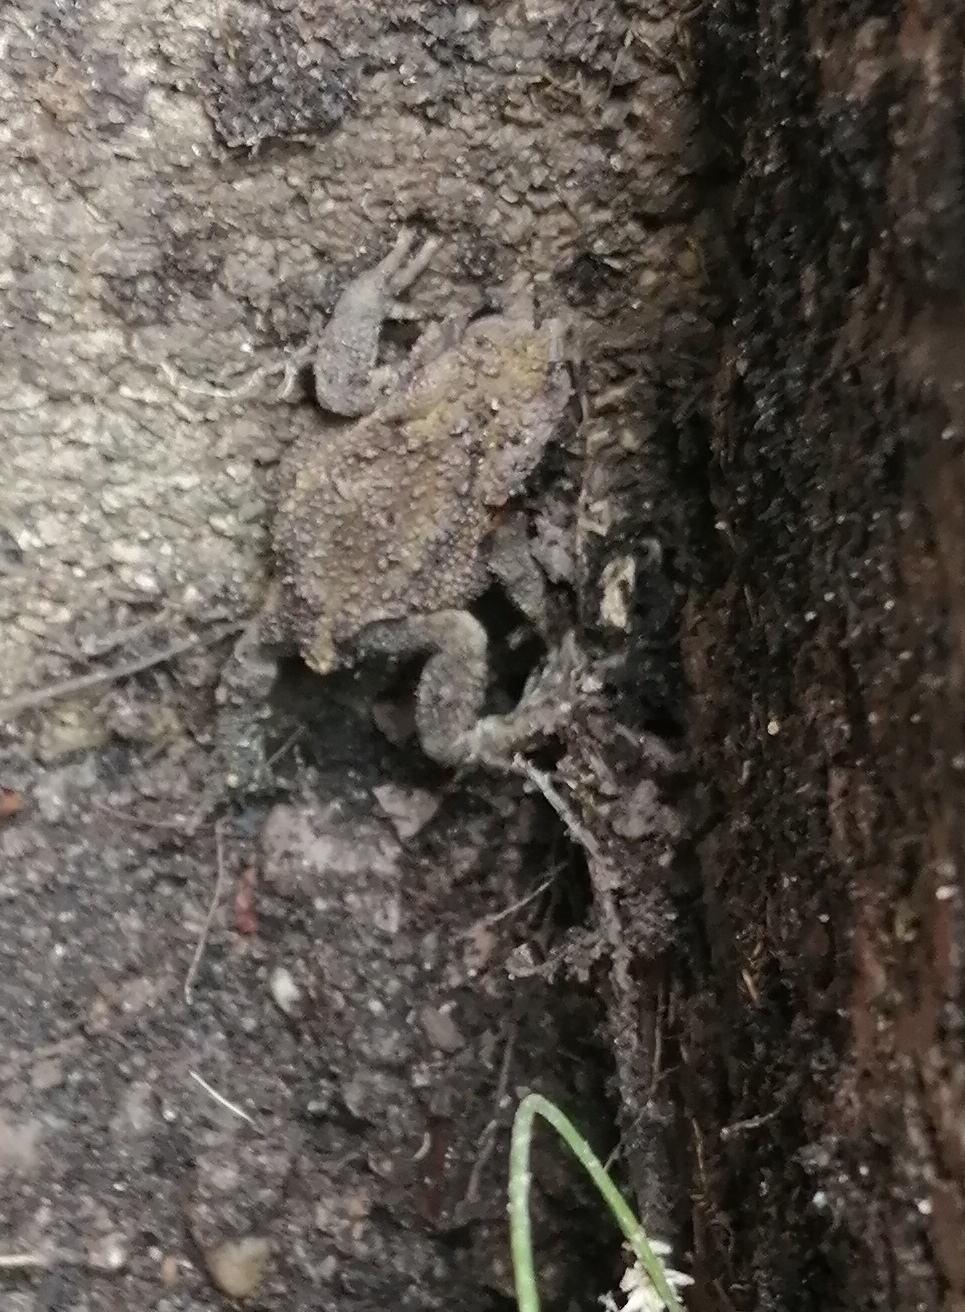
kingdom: Animalia
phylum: Chordata
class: Amphibia
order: Anura
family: Bufonidae
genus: Bufo
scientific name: Bufo bufo
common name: Common toad
